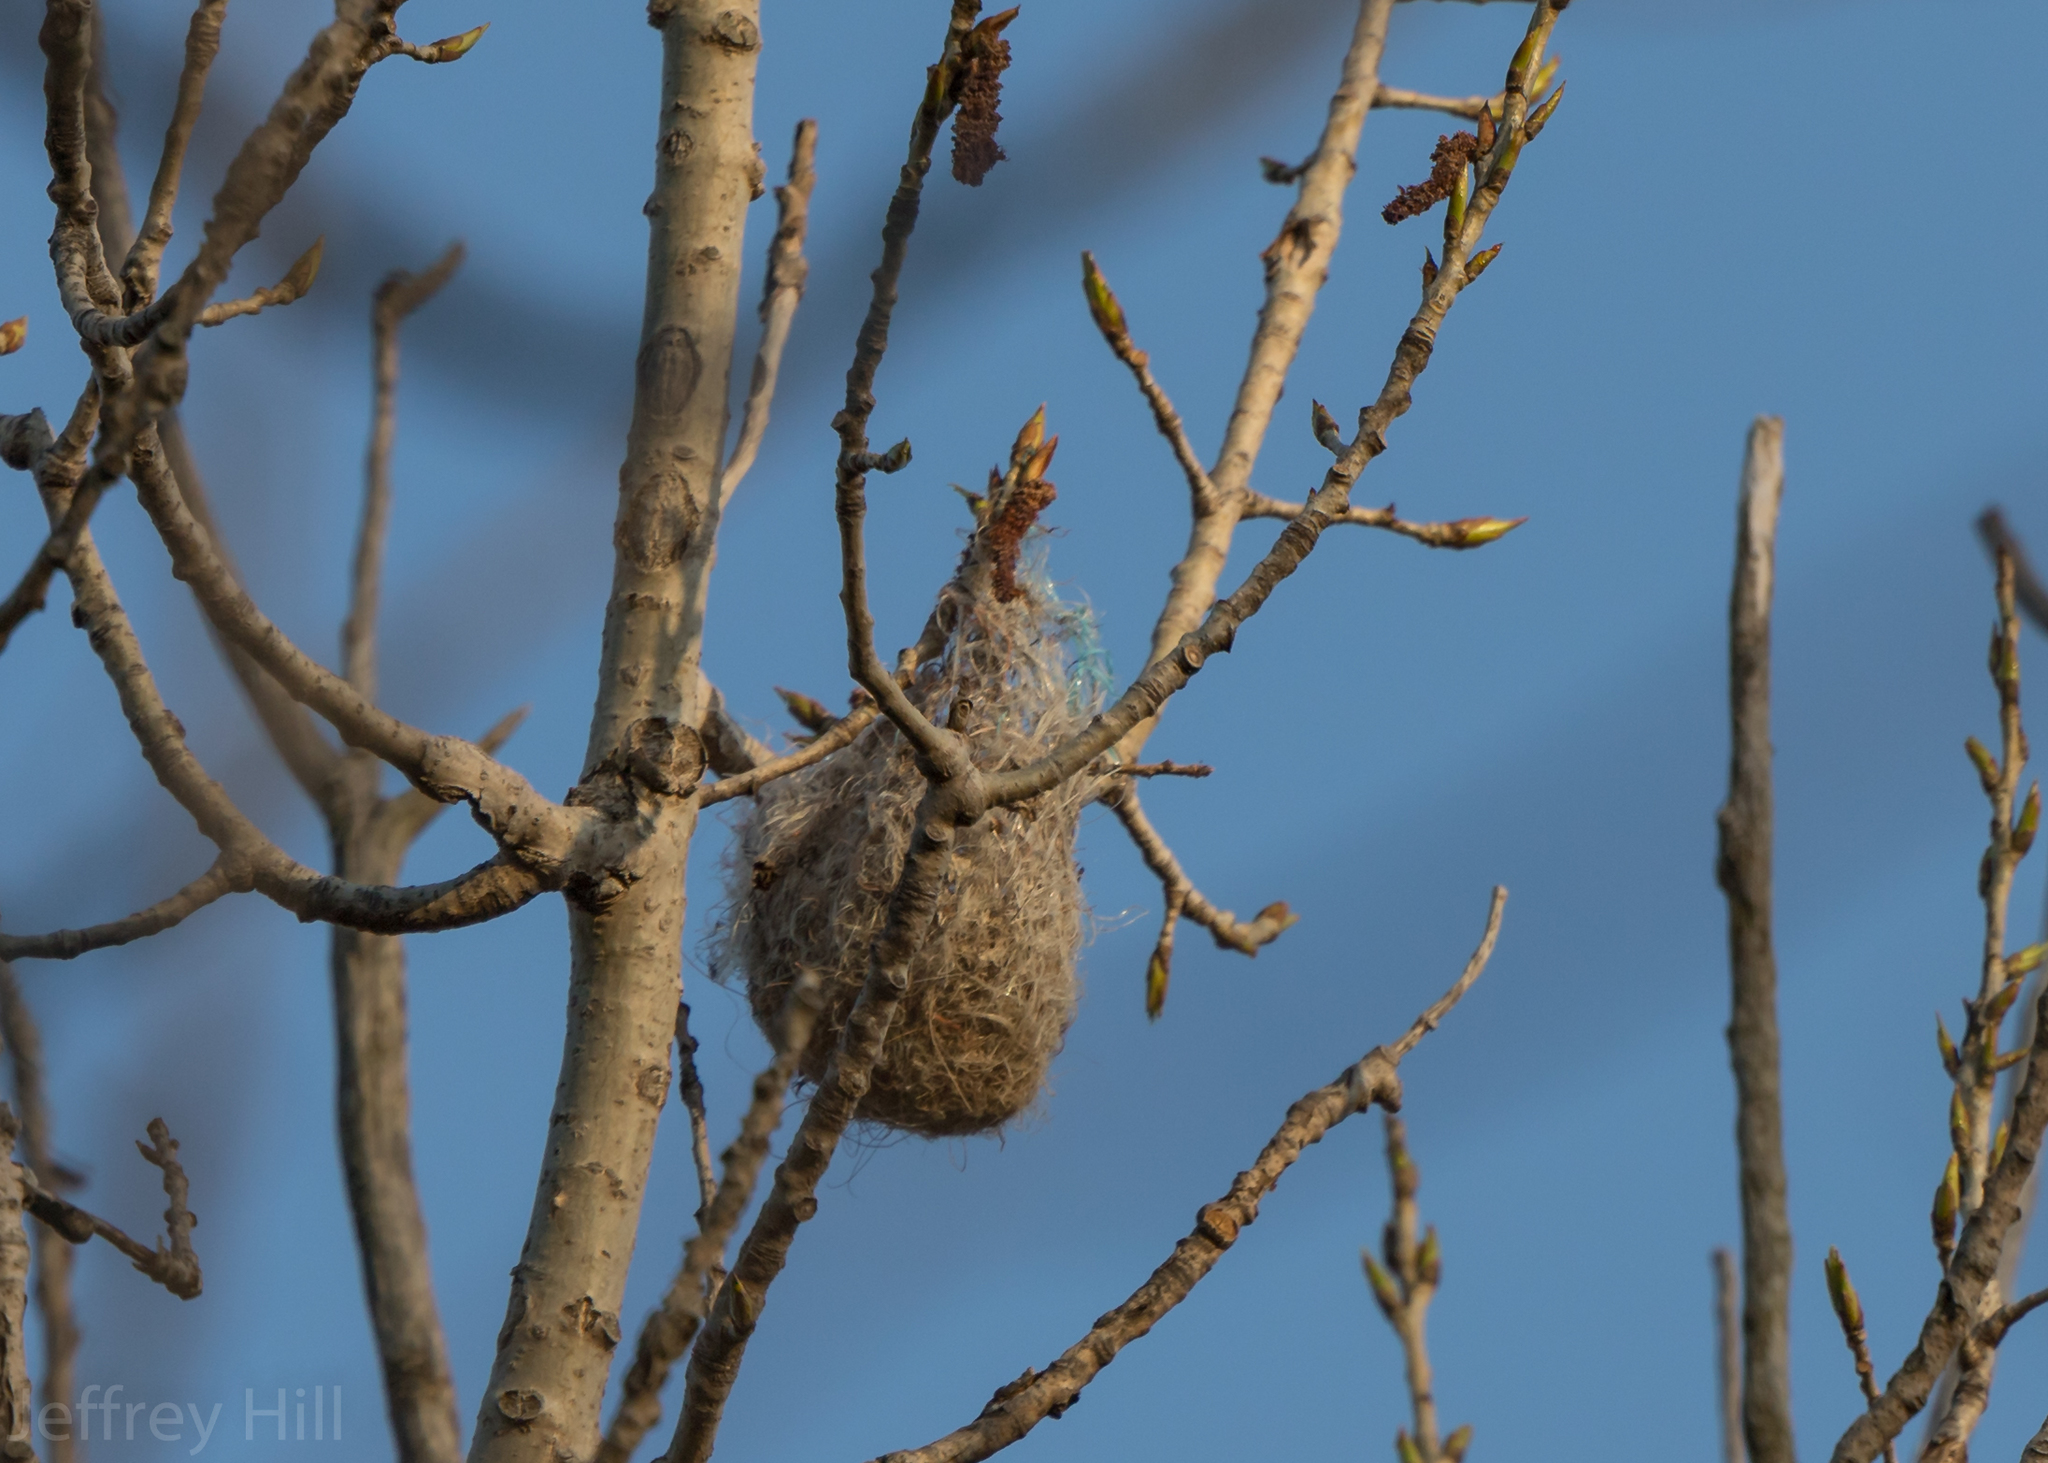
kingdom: Animalia
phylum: Chordata
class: Aves
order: Passeriformes
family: Icteridae
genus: Icterus
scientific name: Icterus galbula
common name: Baltimore oriole
